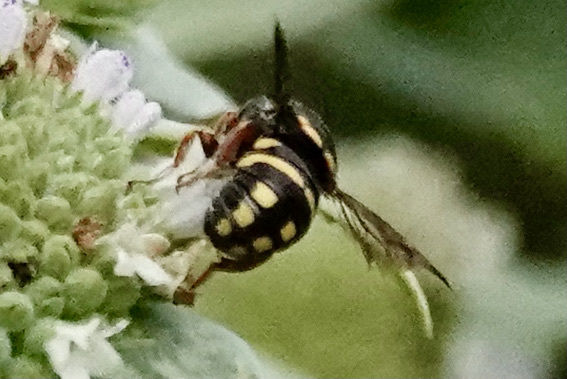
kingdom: Animalia
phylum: Arthropoda
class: Insecta
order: Hymenoptera
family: Megachilidae
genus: Anthidiellum
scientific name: Anthidiellum notatum
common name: Northern rotund-resin bee
